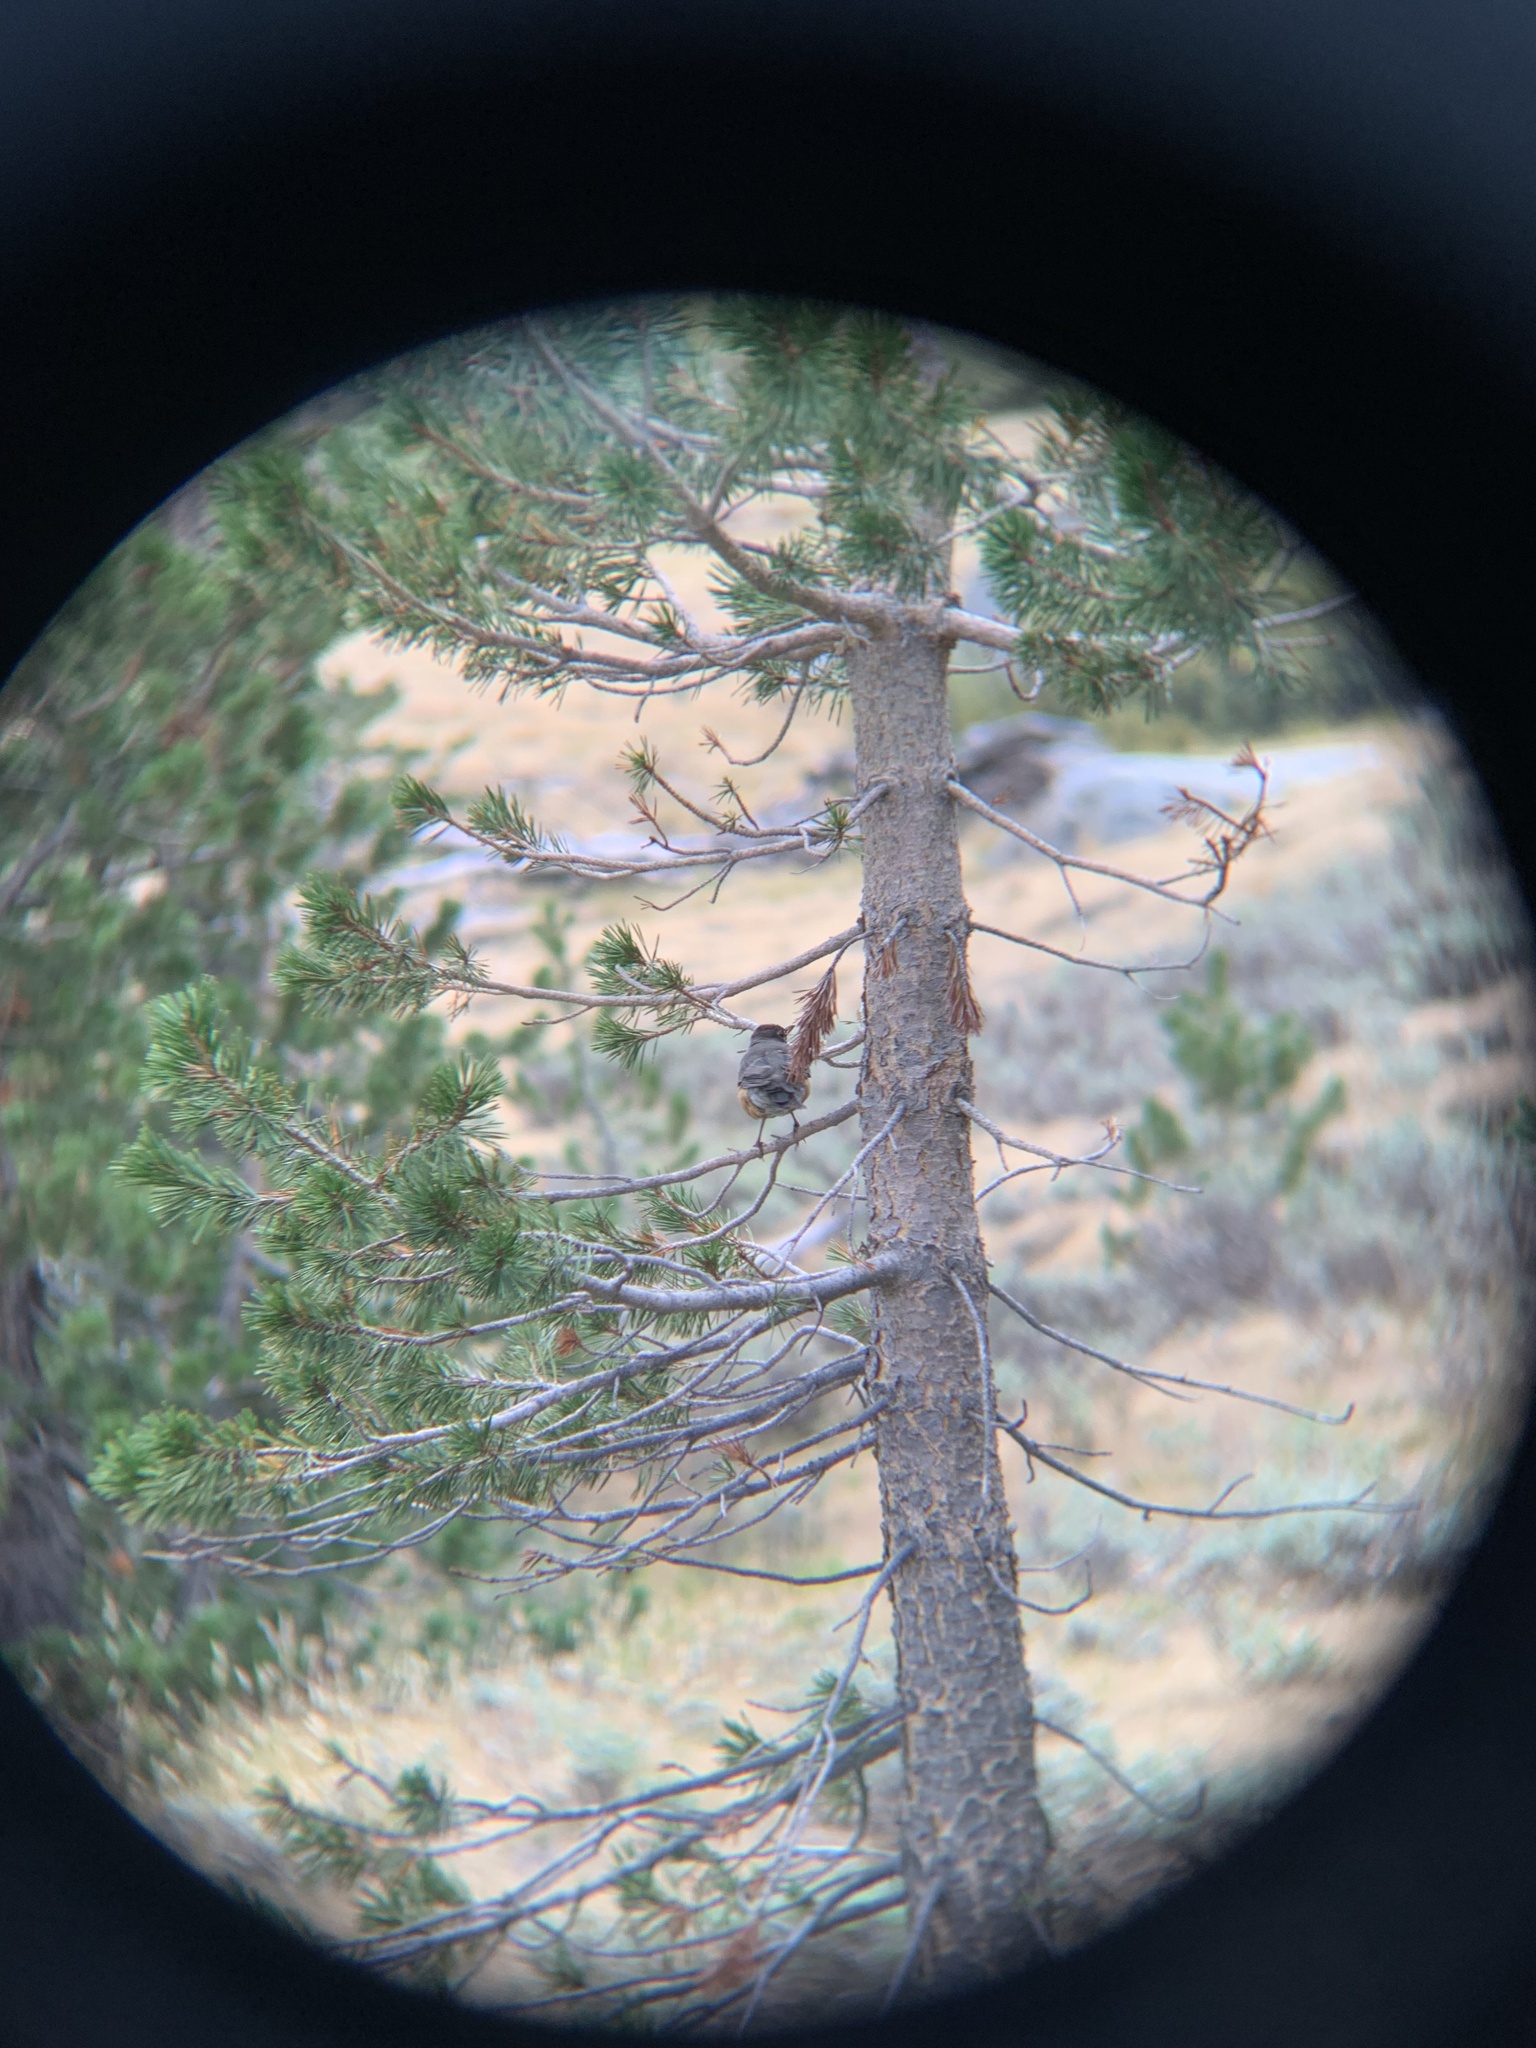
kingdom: Animalia
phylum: Chordata
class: Aves
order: Passeriformes
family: Turdidae
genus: Turdus
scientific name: Turdus migratorius
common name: American robin
